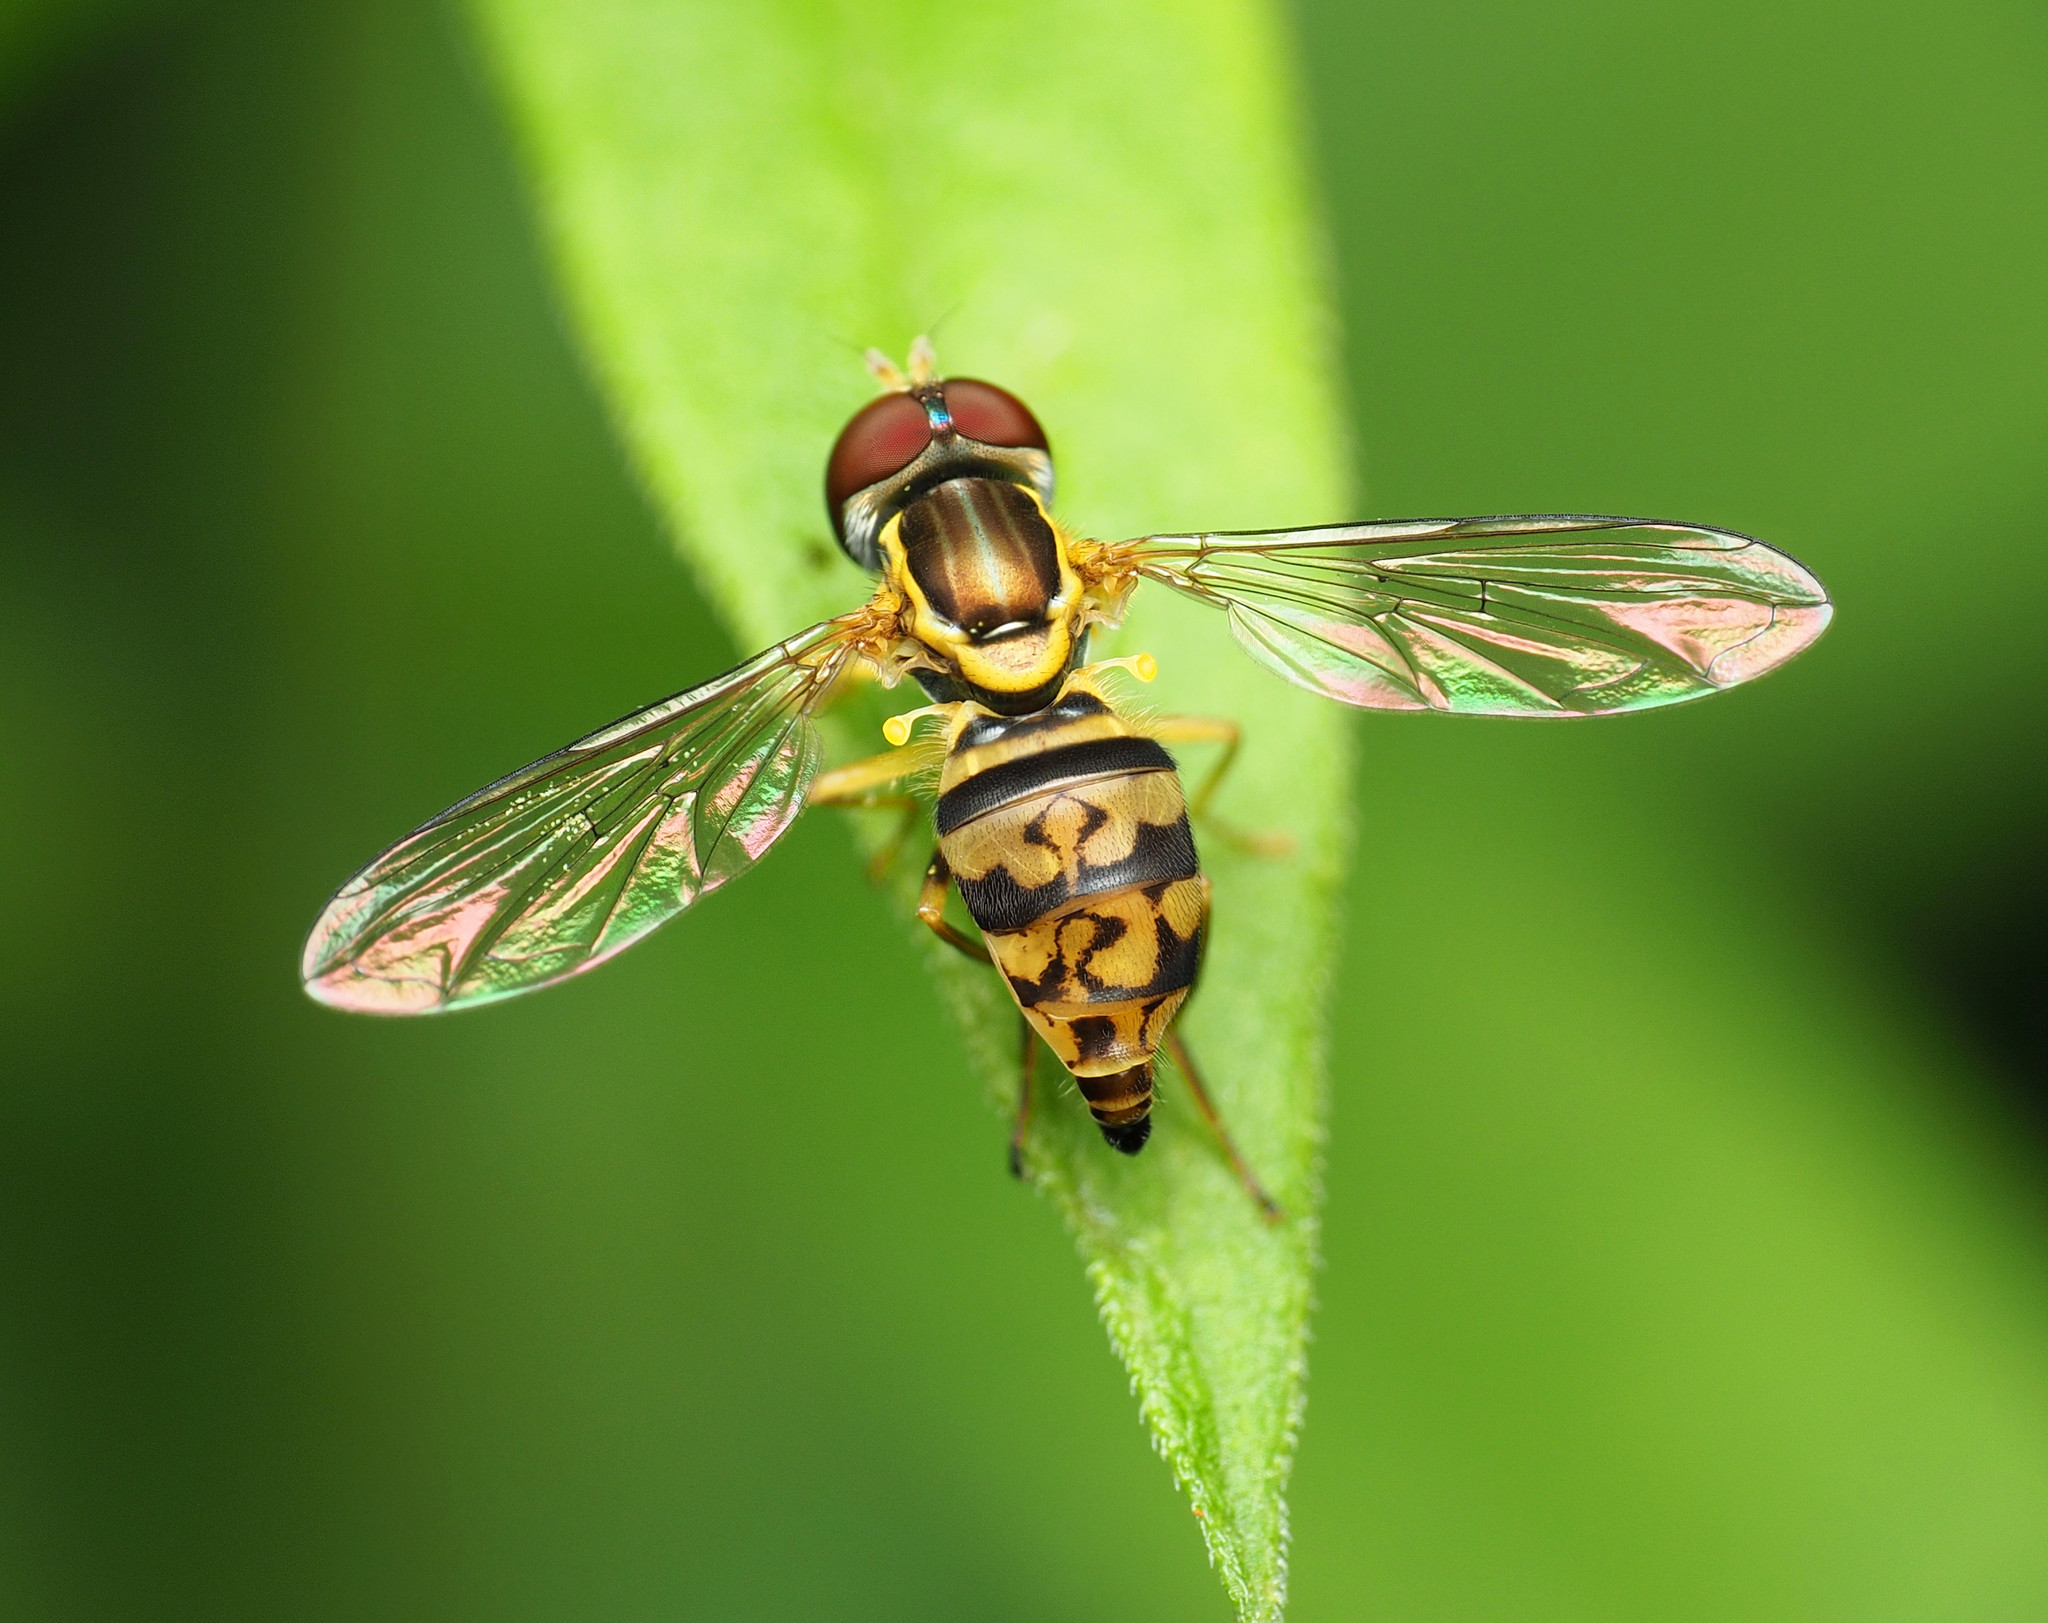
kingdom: Animalia
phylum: Arthropoda
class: Insecta
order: Diptera
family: Syrphidae
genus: Toxomerus
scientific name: Toxomerus geminatus
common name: Eastern calligrapher
